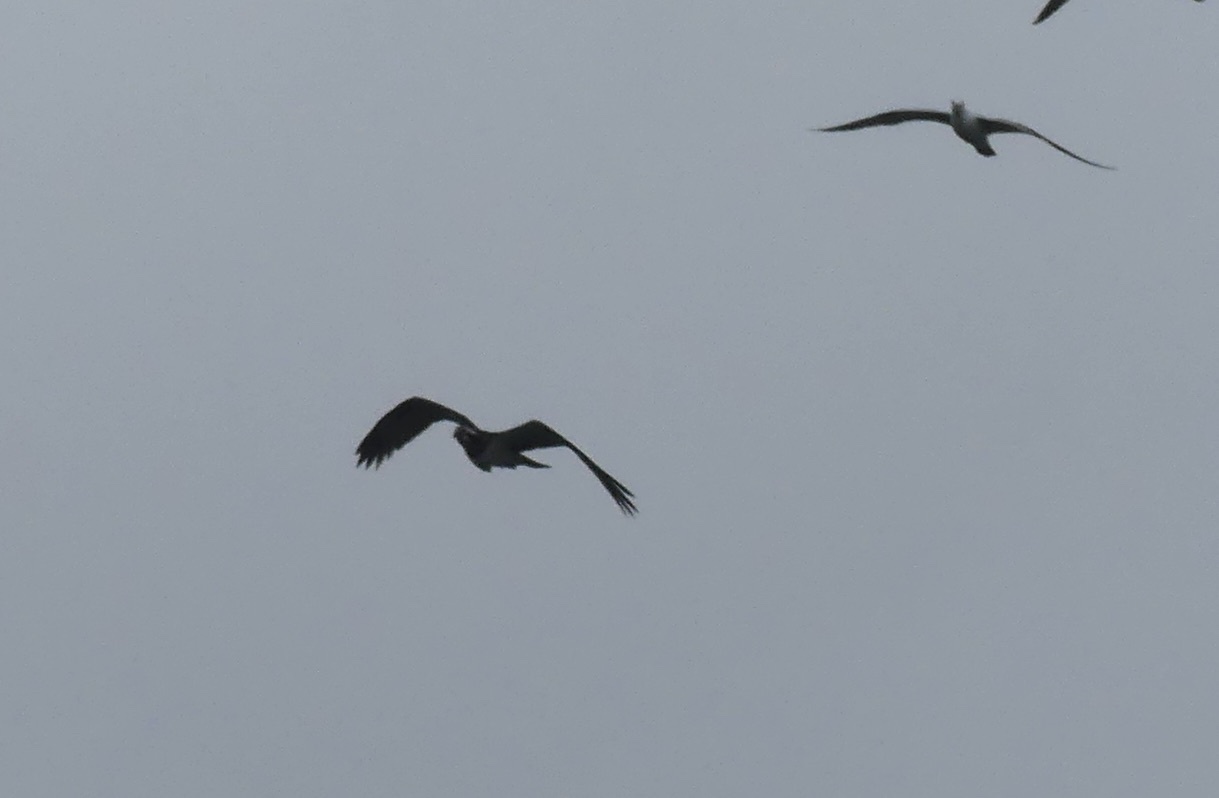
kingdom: Animalia
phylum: Chordata
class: Aves
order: Accipitriformes
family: Pandionidae
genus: Pandion
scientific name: Pandion haliaetus
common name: Osprey
